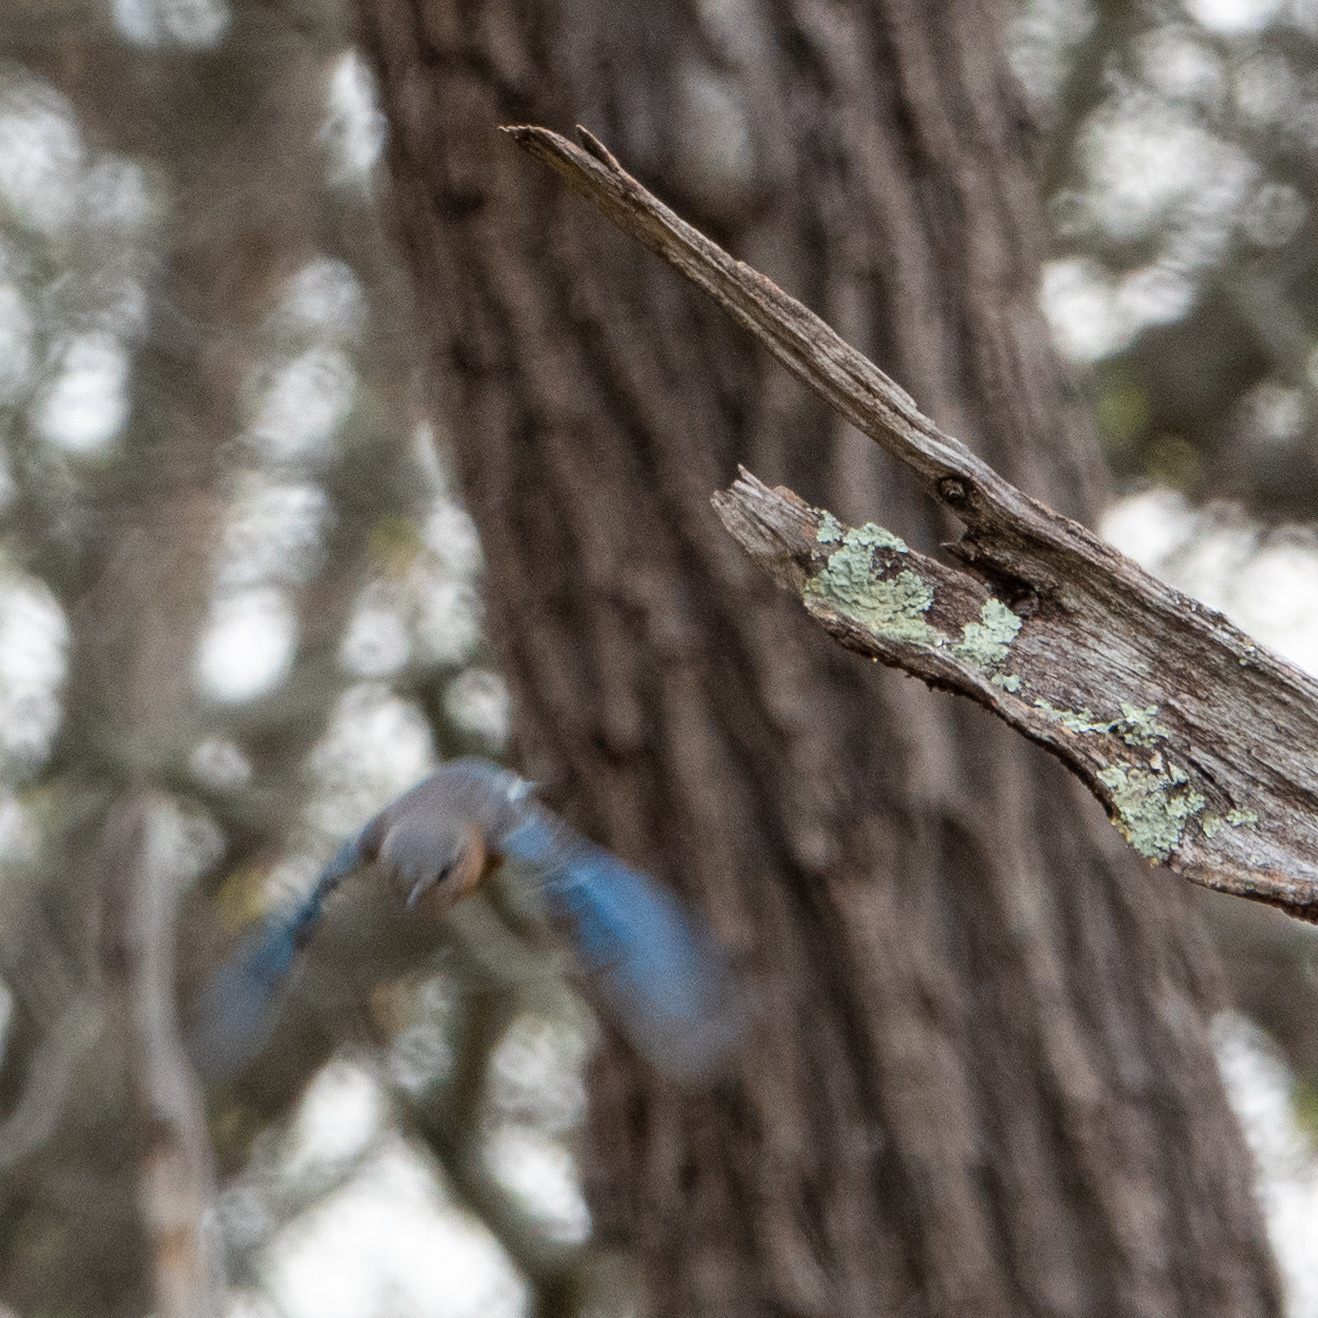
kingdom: Animalia
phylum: Chordata
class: Aves
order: Passeriformes
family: Turdidae
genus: Sialia
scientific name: Sialia sialis
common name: Eastern bluebird
